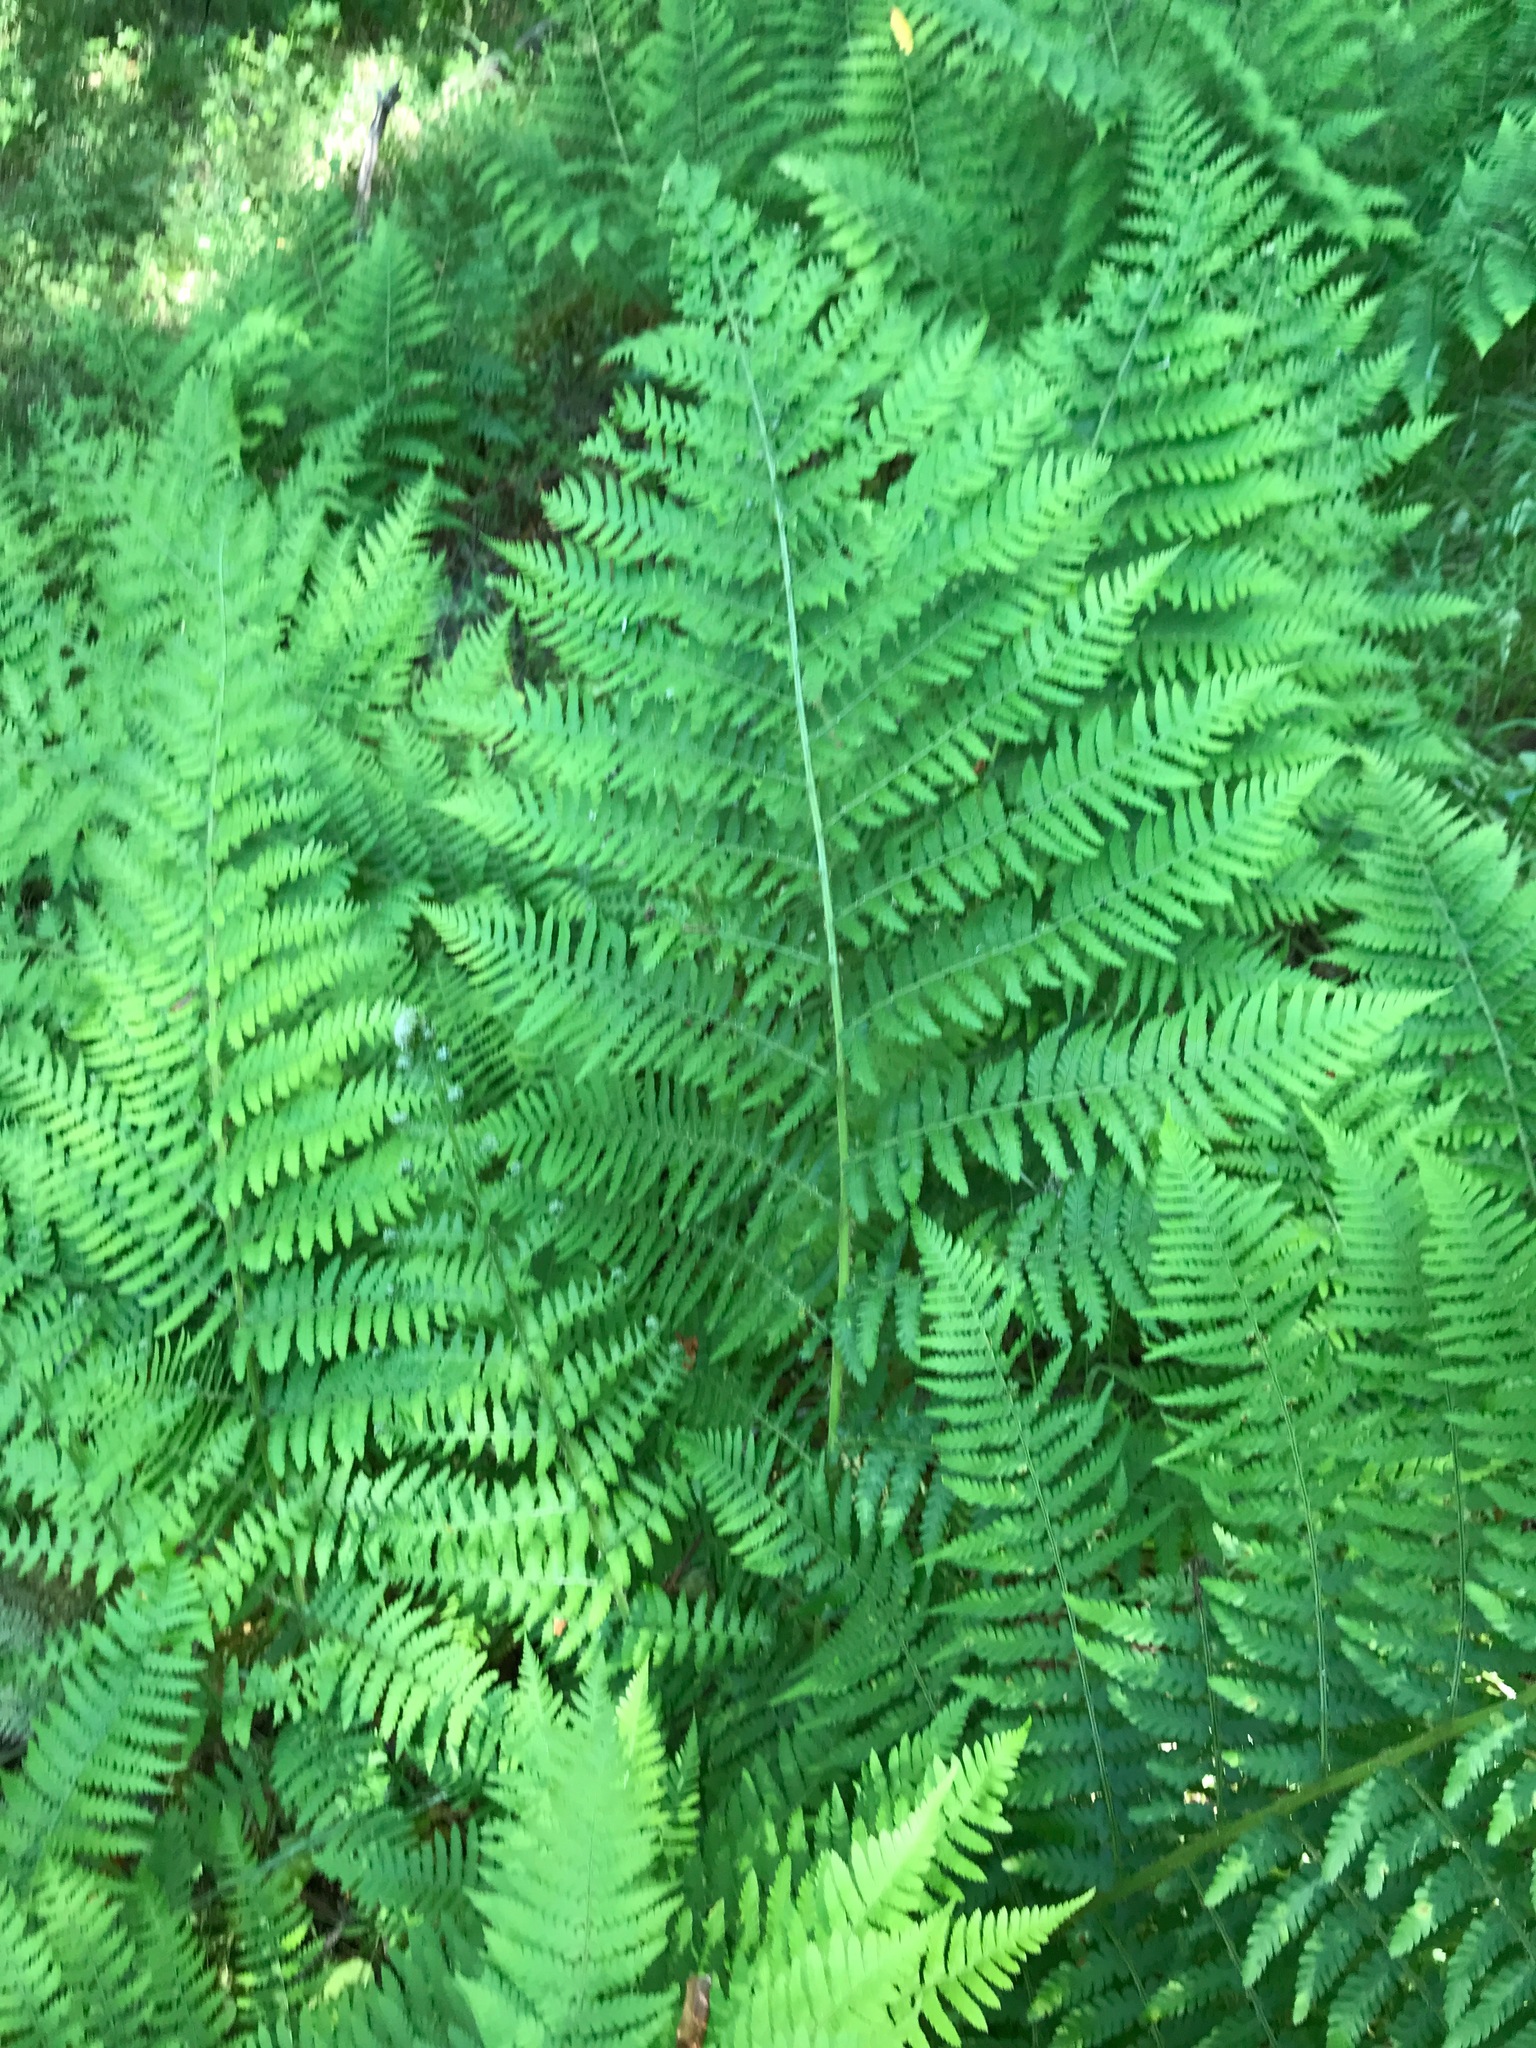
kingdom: Plantae
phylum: Tracheophyta
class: Polypodiopsida
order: Polypodiales
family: Athyriaceae
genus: Athyrium
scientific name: Athyrium filix-femina
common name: Lady fern
